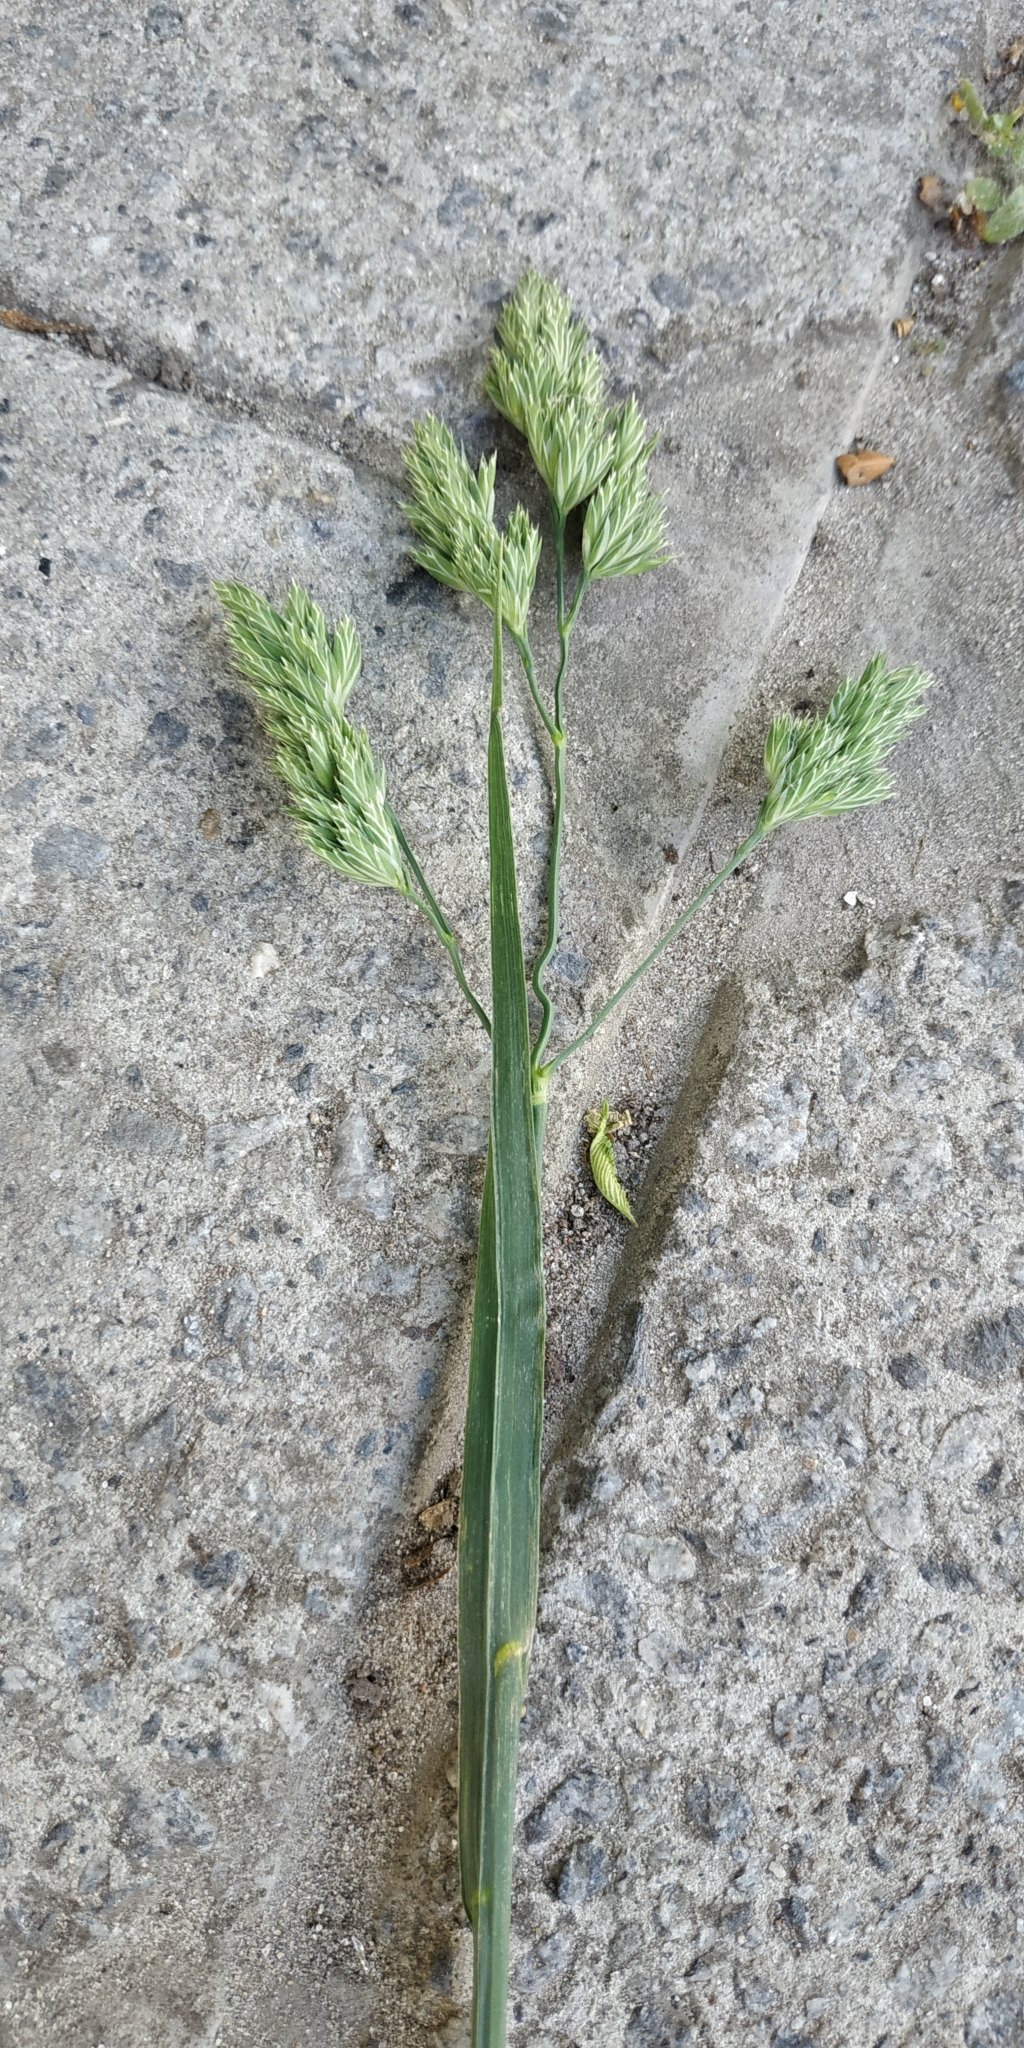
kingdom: Plantae
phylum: Tracheophyta
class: Liliopsida
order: Poales
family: Poaceae
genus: Dactylis
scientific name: Dactylis glomerata
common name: Orchardgrass
